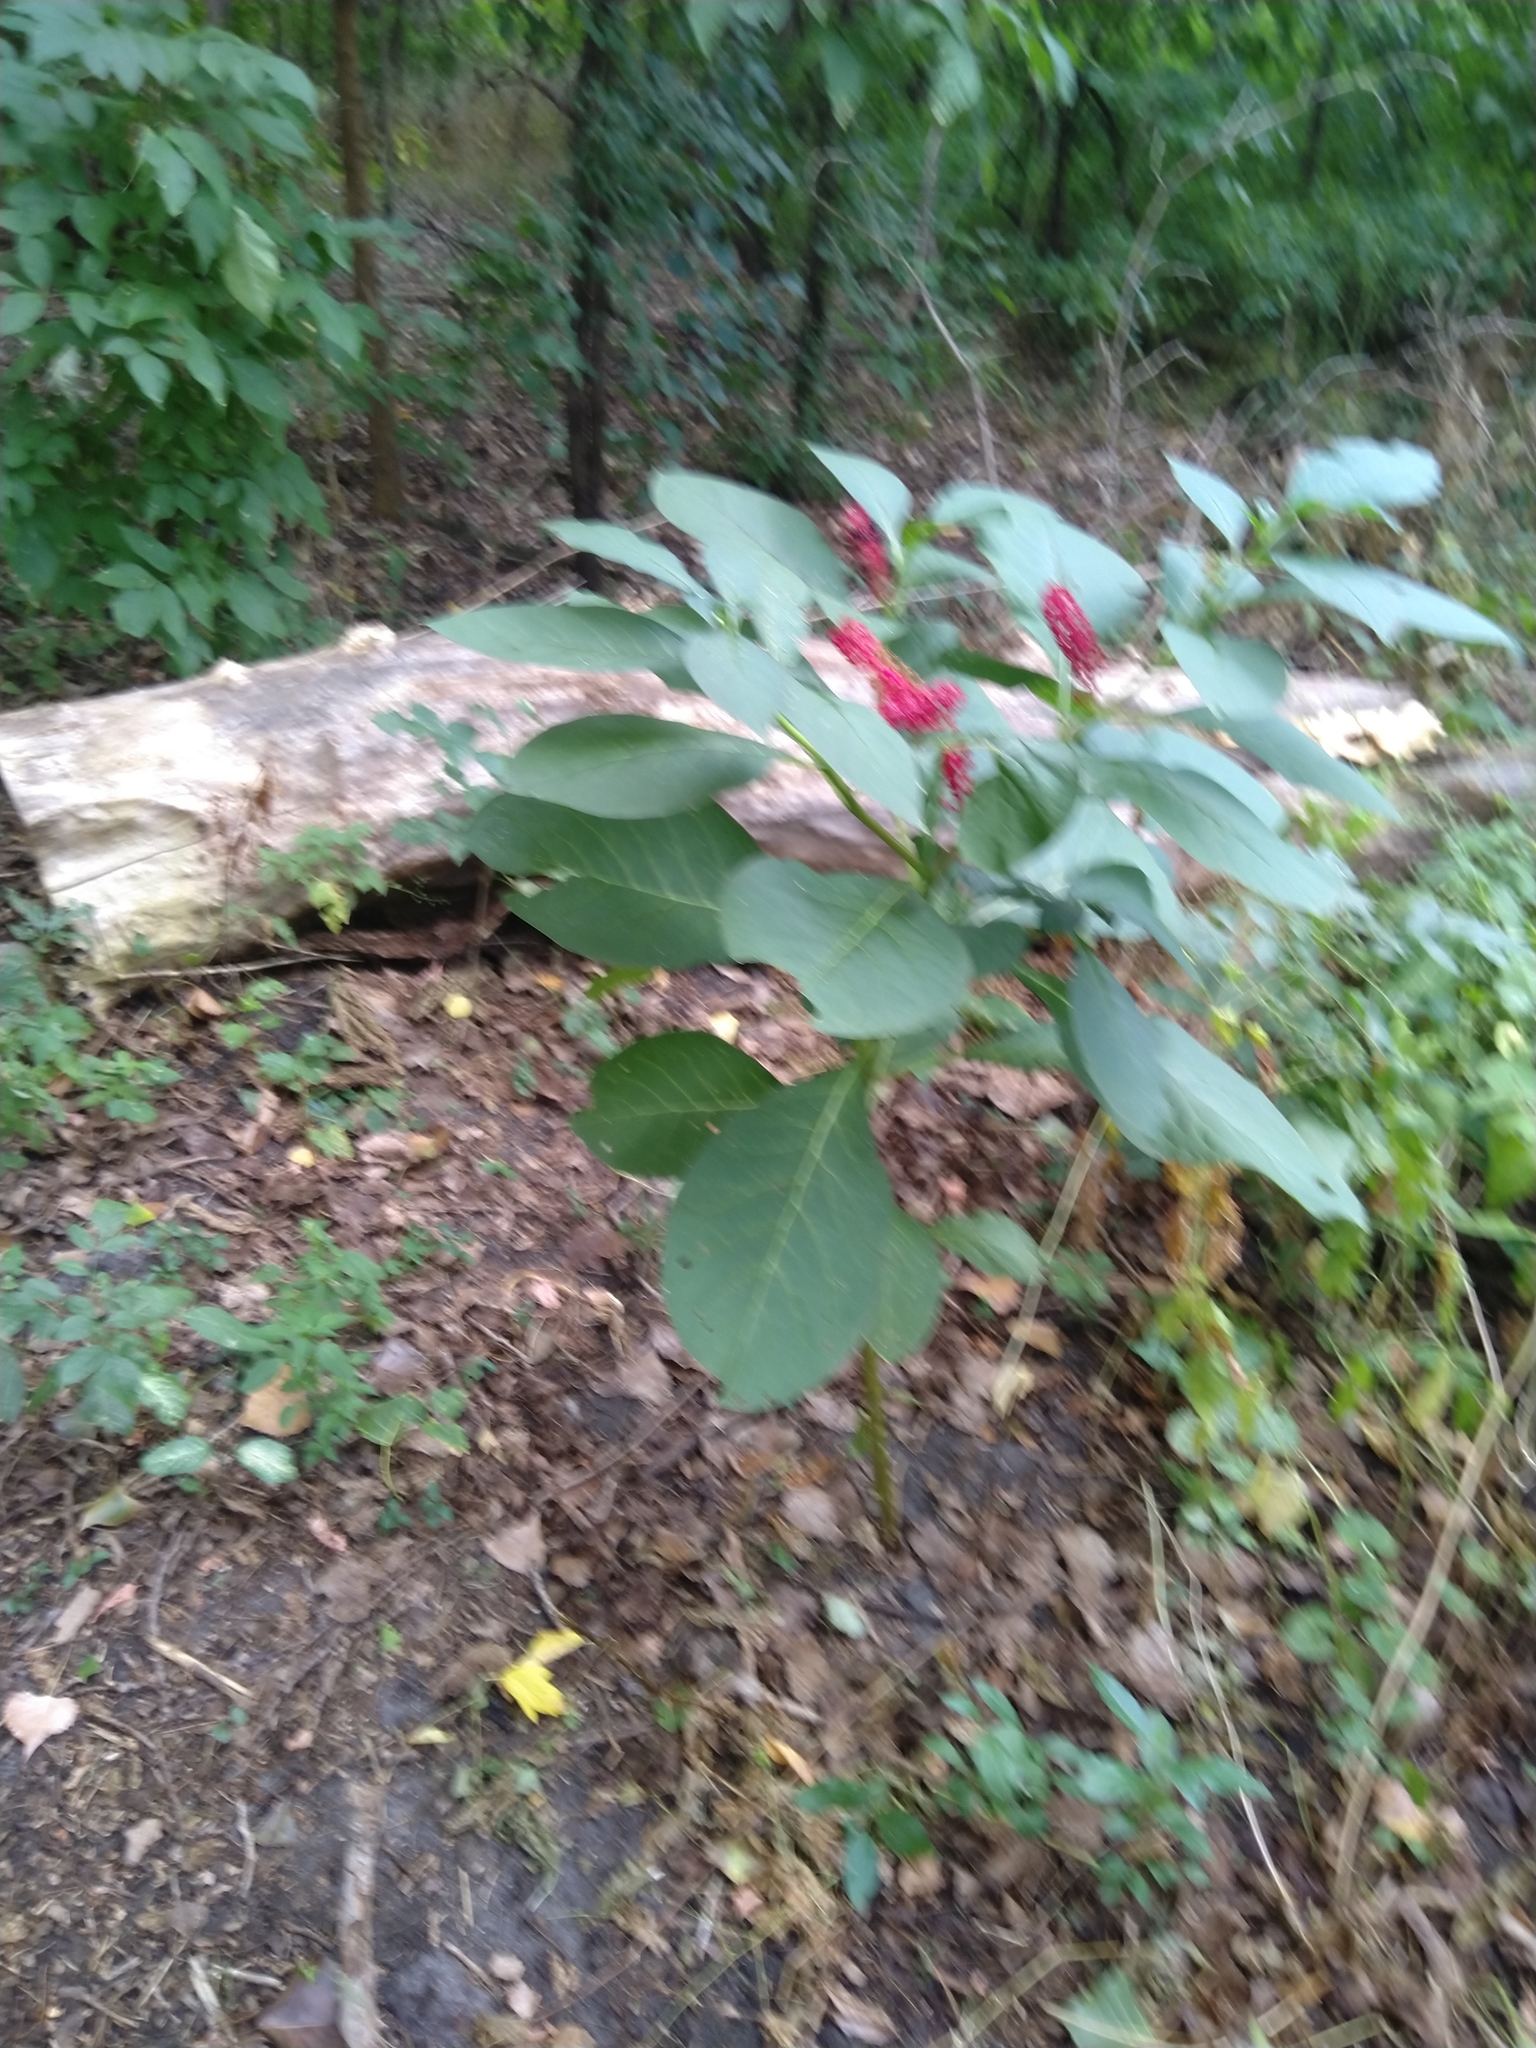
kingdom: Plantae
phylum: Tracheophyta
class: Magnoliopsida
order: Caryophyllales
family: Phytolaccaceae
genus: Phytolacca
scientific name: Phytolacca acinosa
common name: Indian pokeweed
